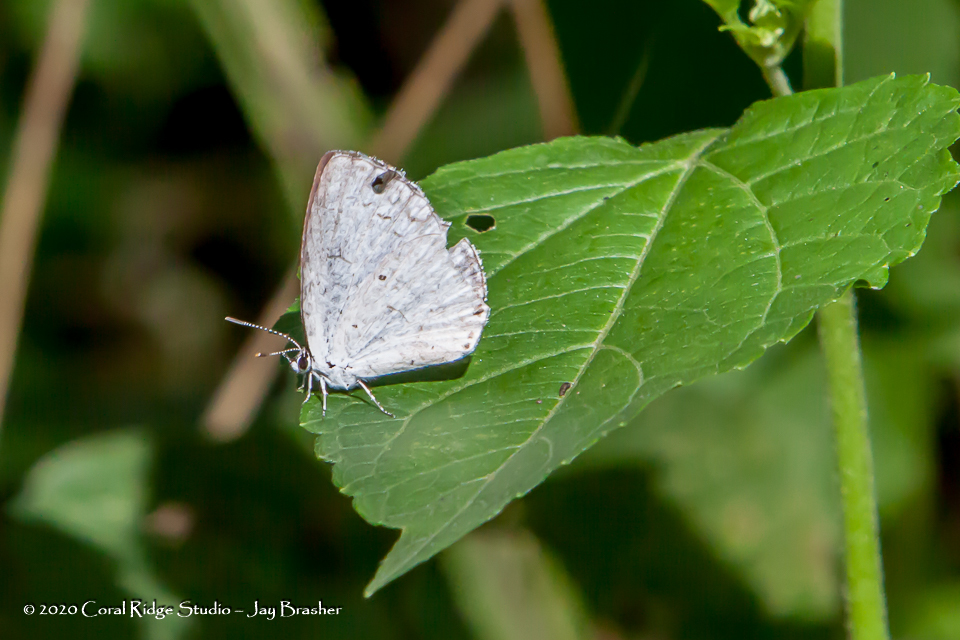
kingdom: Animalia
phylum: Arthropoda
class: Insecta
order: Lepidoptera
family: Lycaenidae
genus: Cyaniris
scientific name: Cyaniris neglecta
